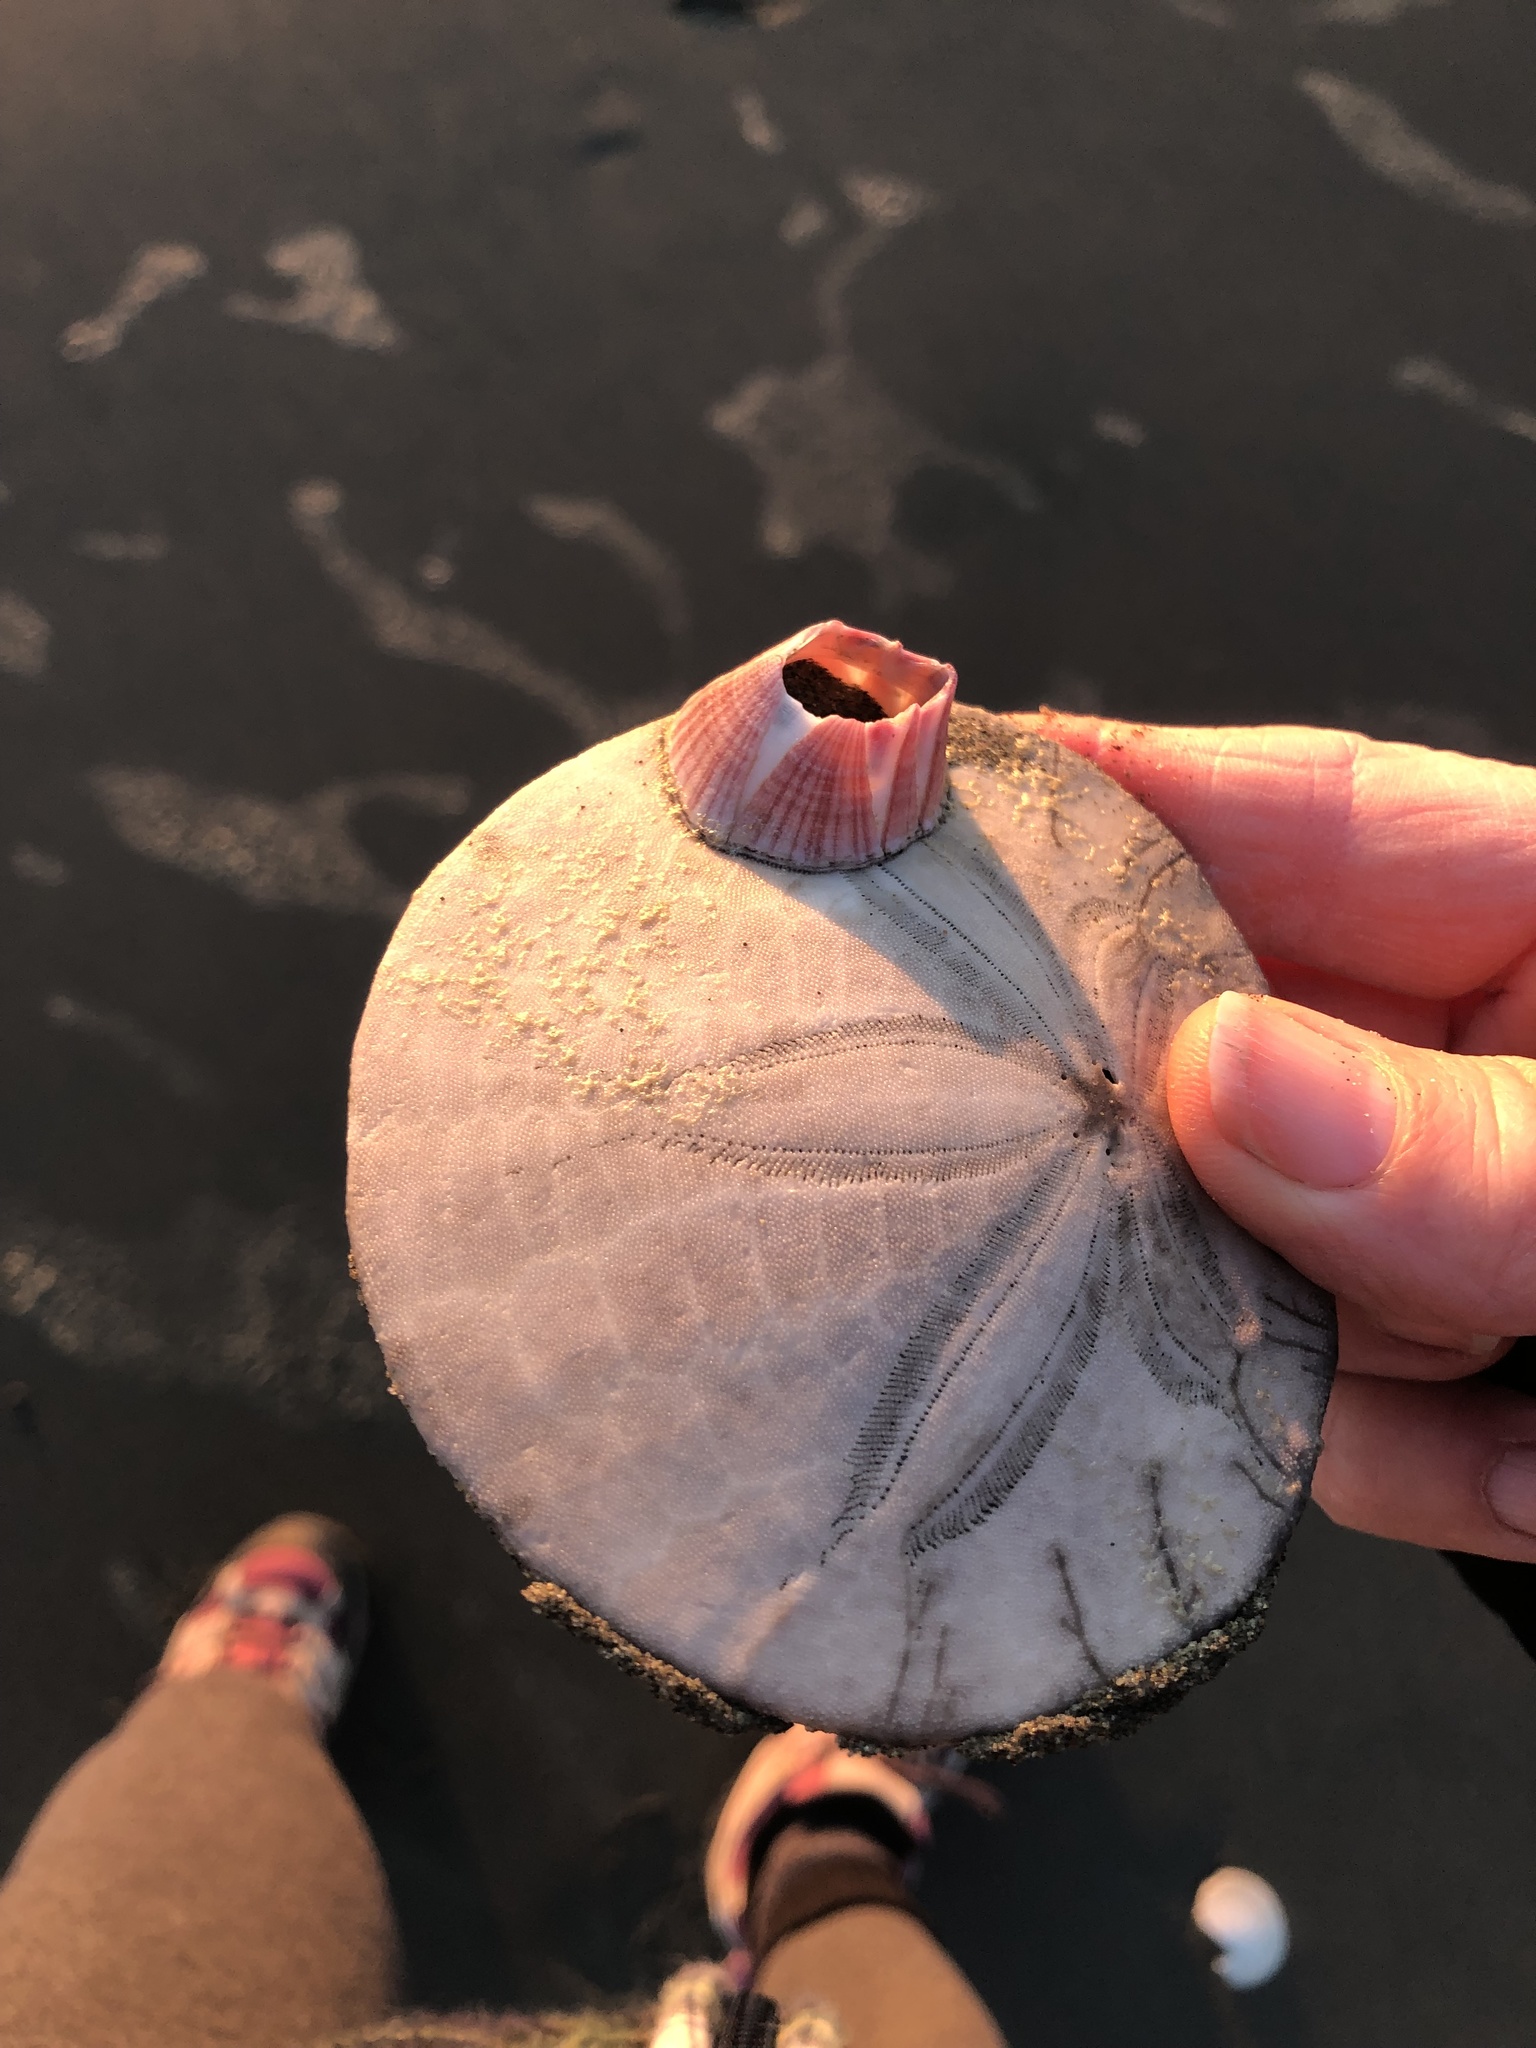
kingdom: Animalia
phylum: Arthropoda
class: Maxillopoda
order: Sessilia
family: Balanidae
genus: Paraconcavus
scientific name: Paraconcavus pacificus
